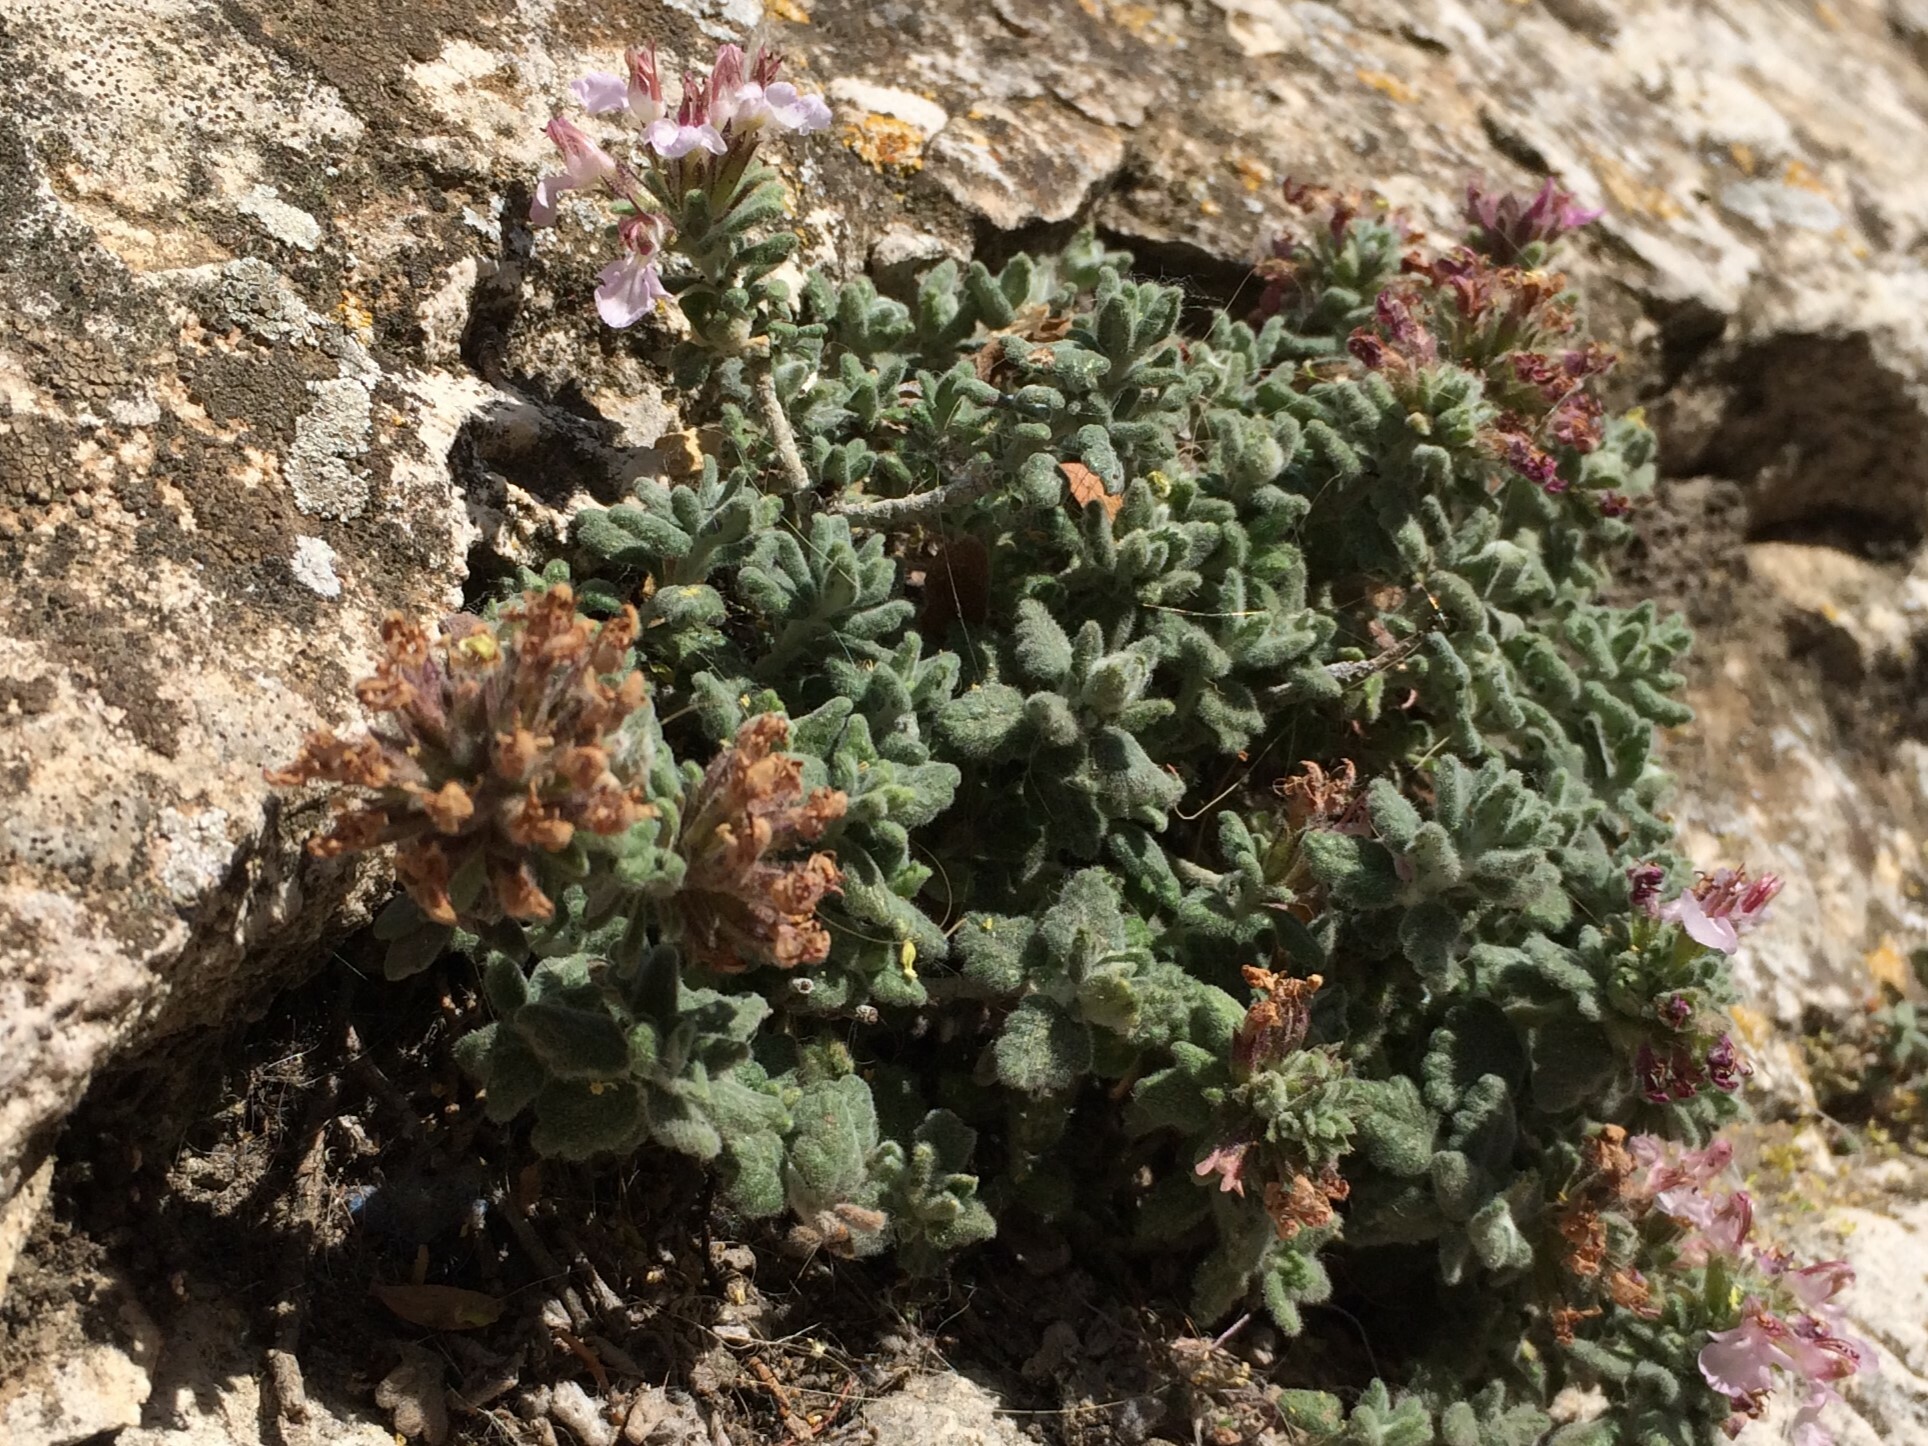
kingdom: Plantae
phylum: Tracheophyta
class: Magnoliopsida
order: Lamiales
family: Lamiaceae
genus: Teucrium
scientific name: Teucrium hifacense
